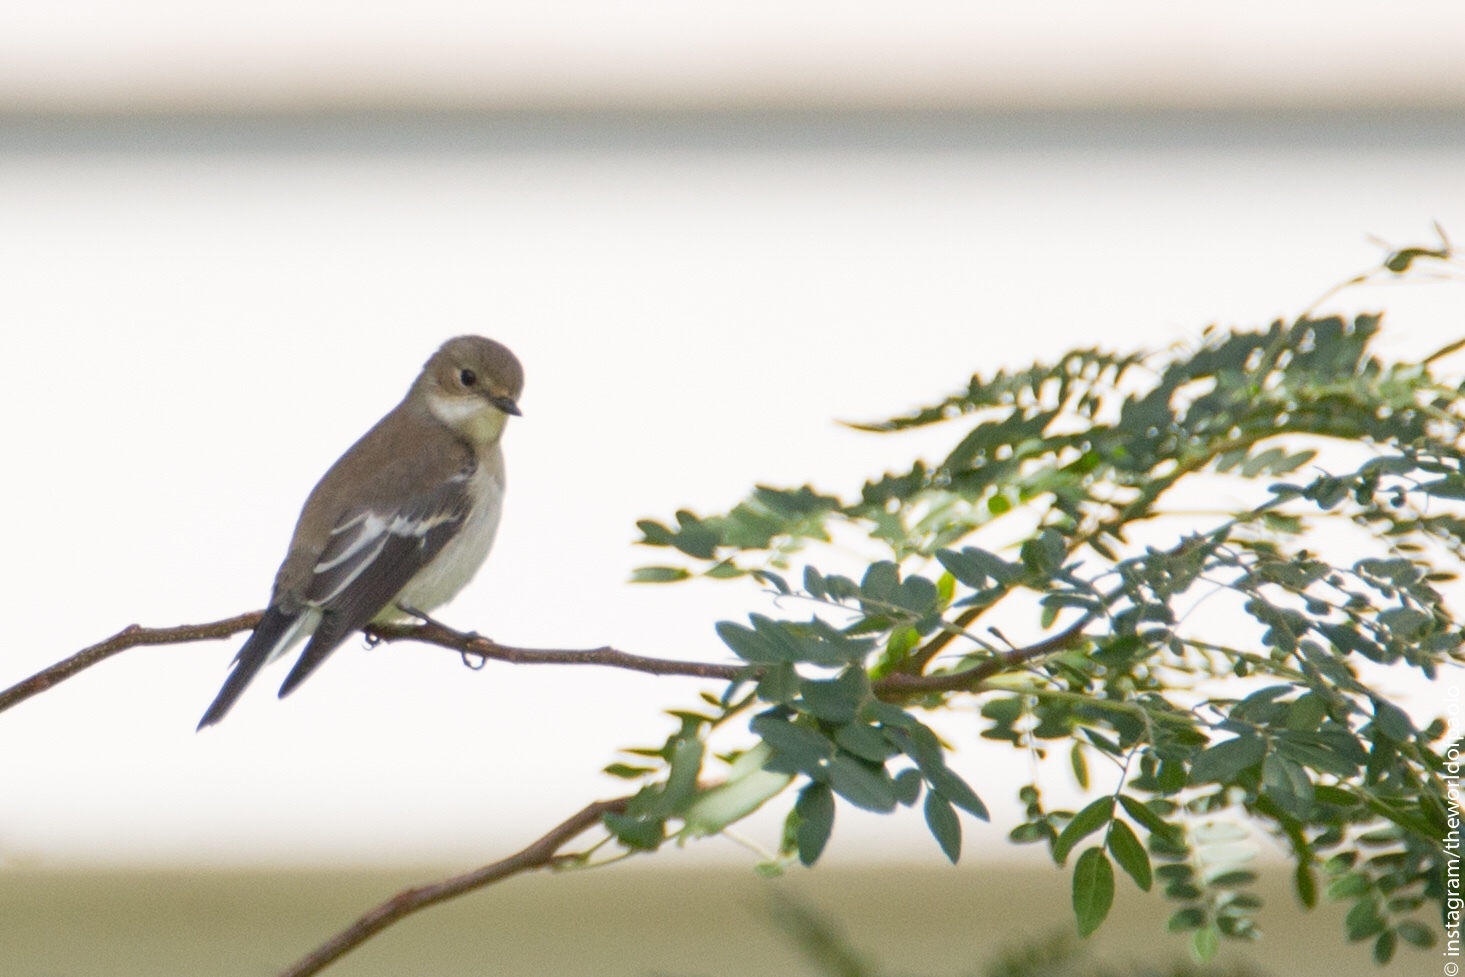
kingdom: Animalia
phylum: Chordata
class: Aves
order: Passeriformes
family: Muscicapidae
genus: Ficedula
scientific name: Ficedula hypoleuca
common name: European pied flycatcher
